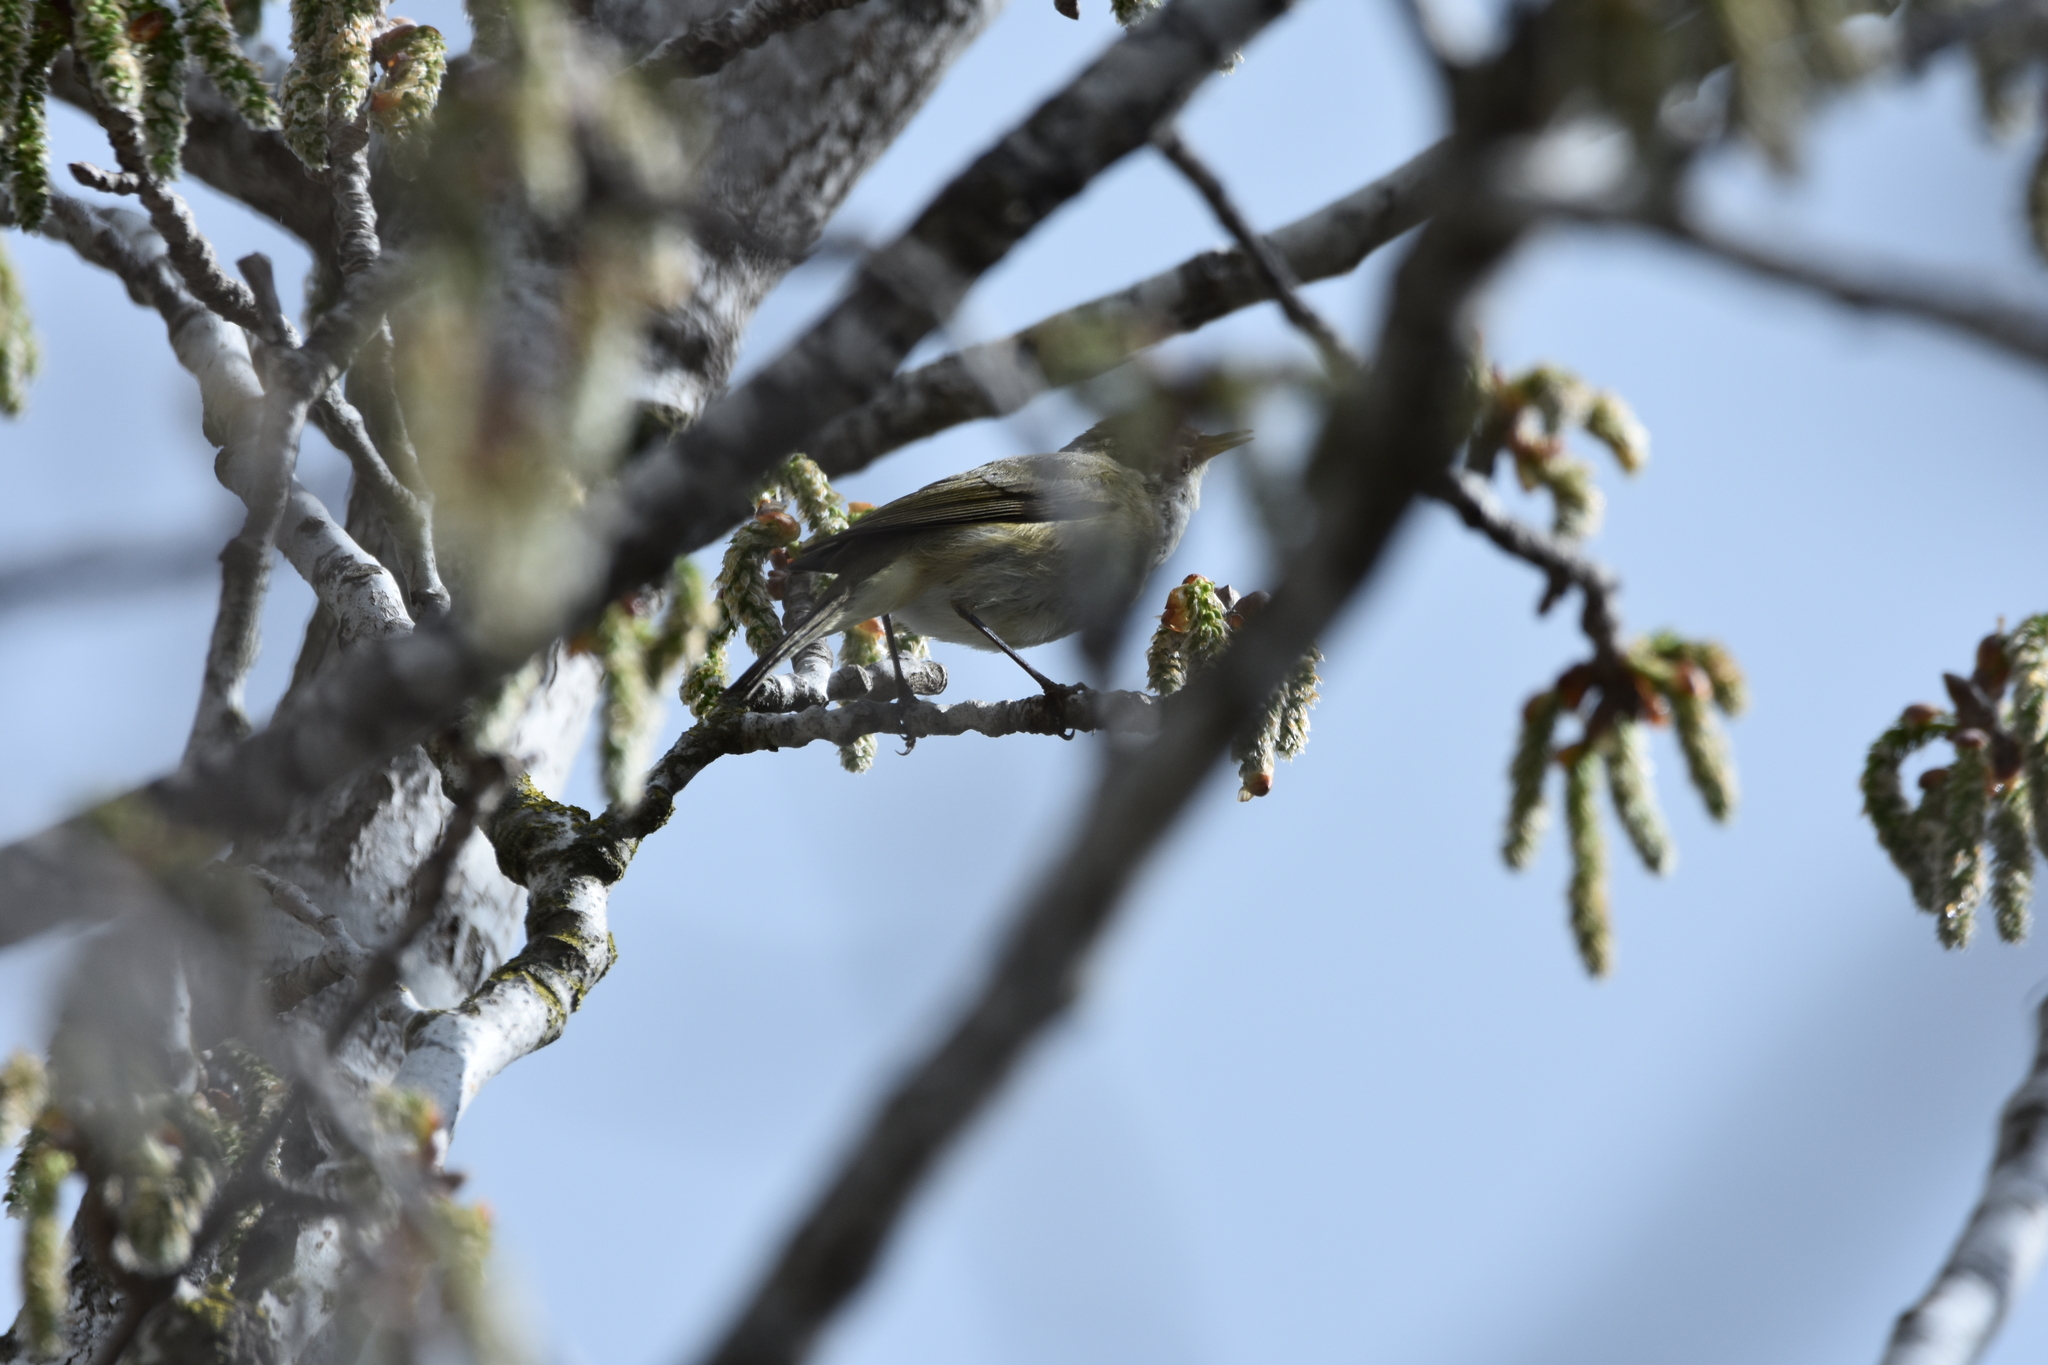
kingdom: Animalia
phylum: Chordata
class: Aves
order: Passeriformes
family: Phylloscopidae
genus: Phylloscopus
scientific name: Phylloscopus collybita
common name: Common chiffchaff
